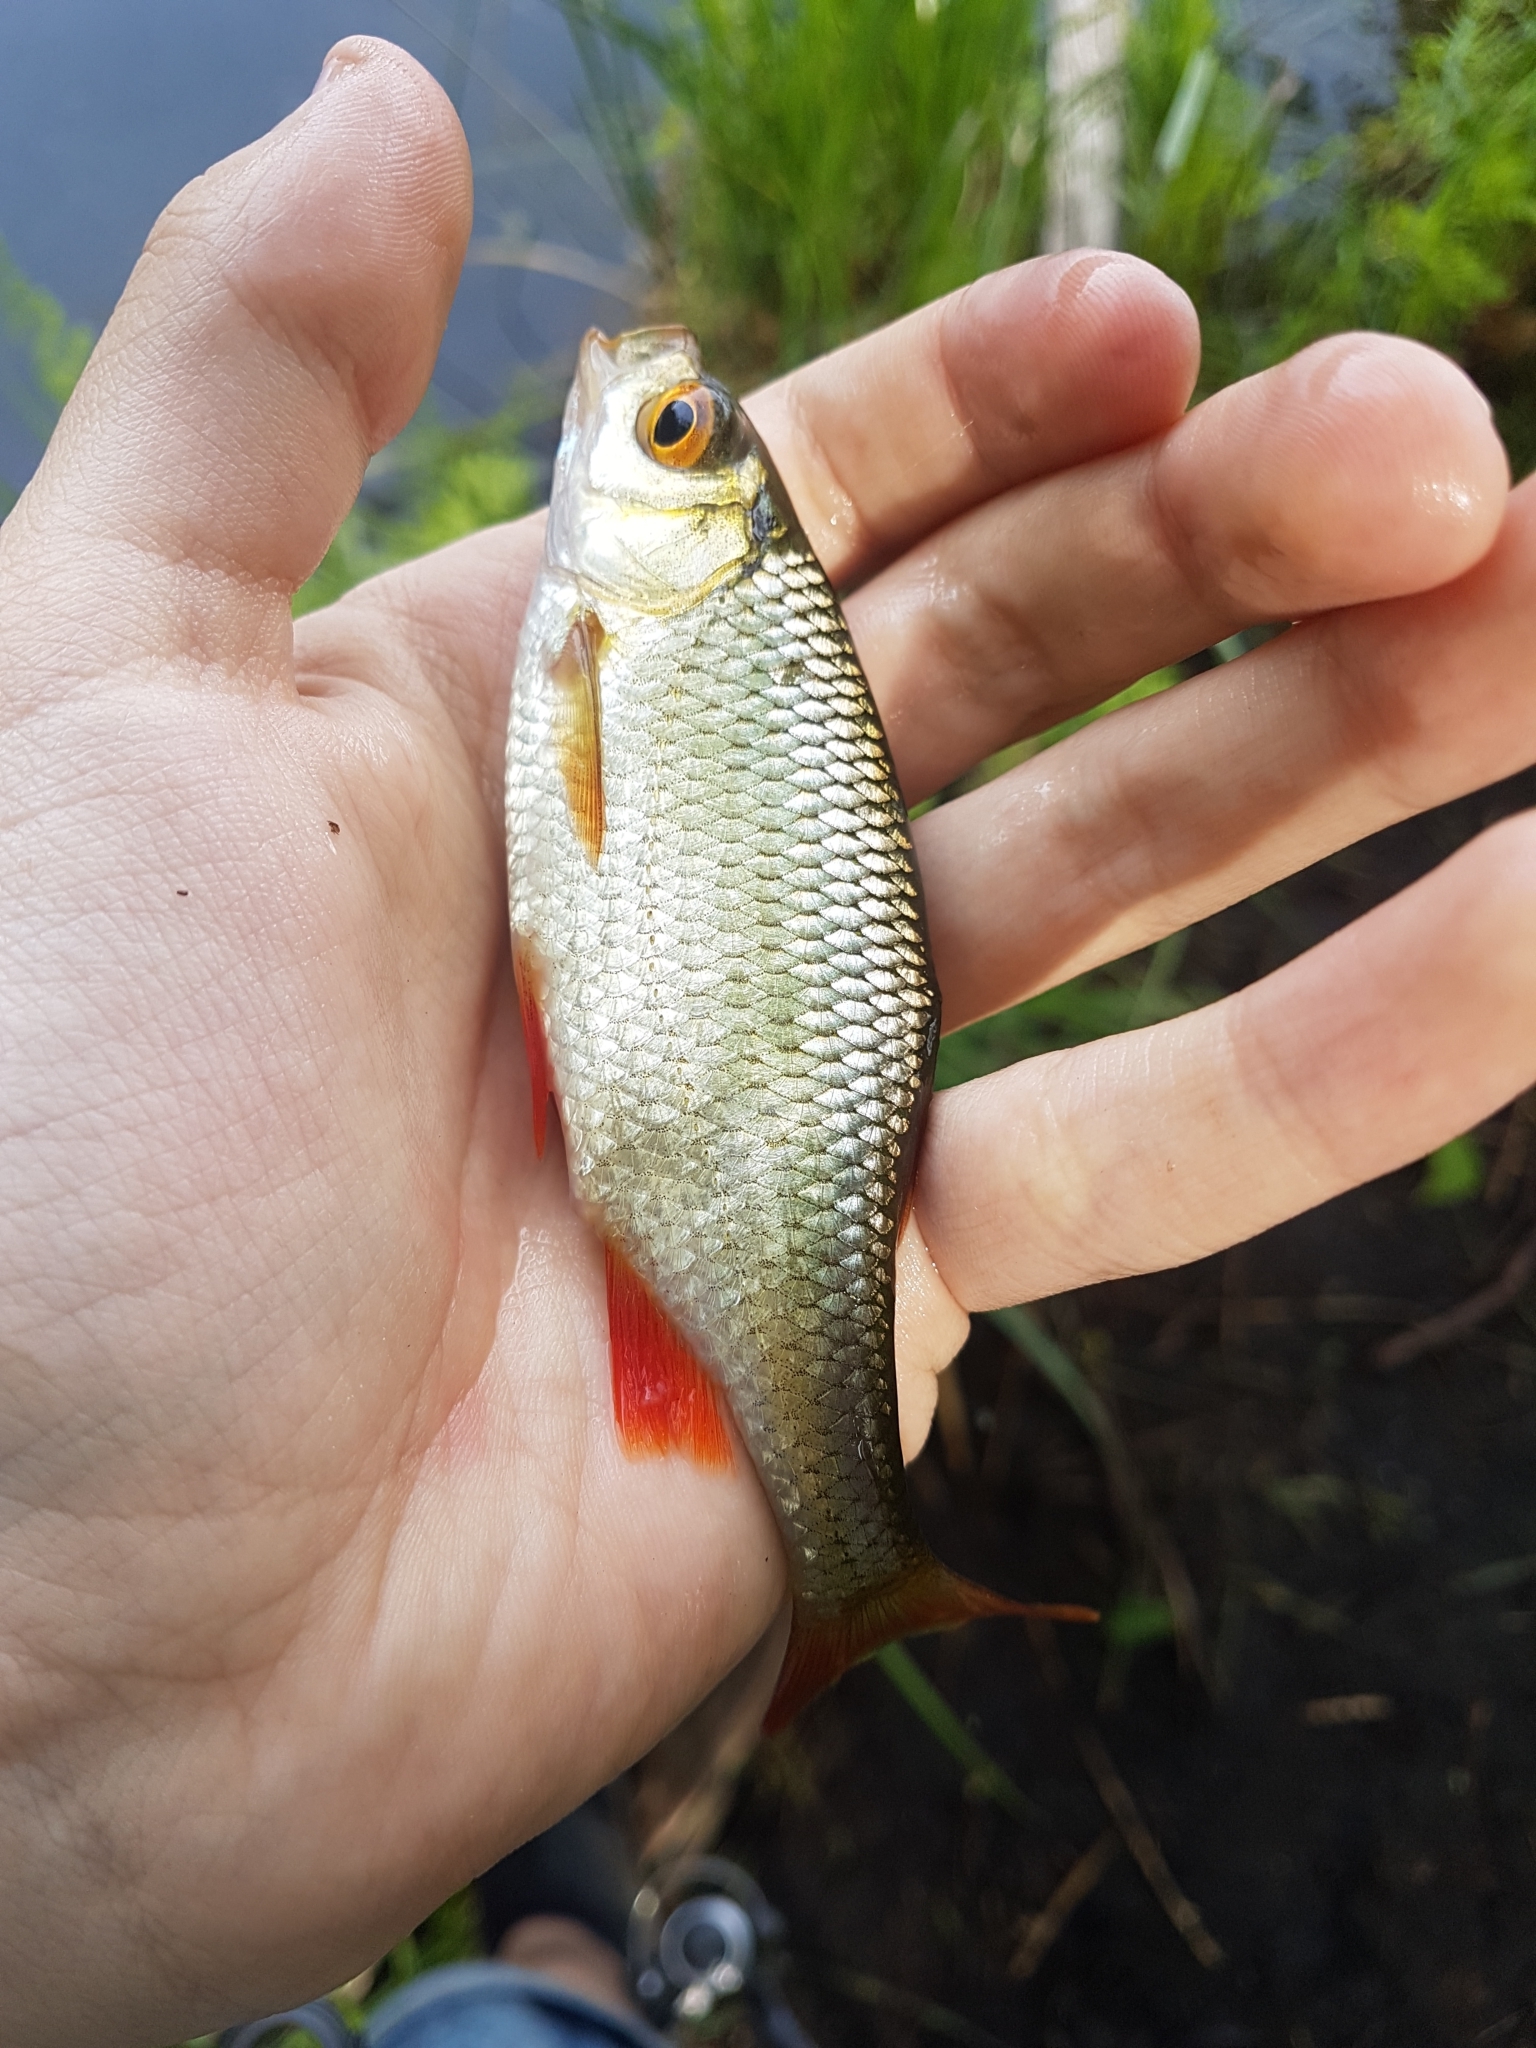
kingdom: Animalia
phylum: Chordata
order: Cypriniformes
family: Cyprinidae
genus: Scardinius
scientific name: Scardinius erythrophthalmus
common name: Rudd
